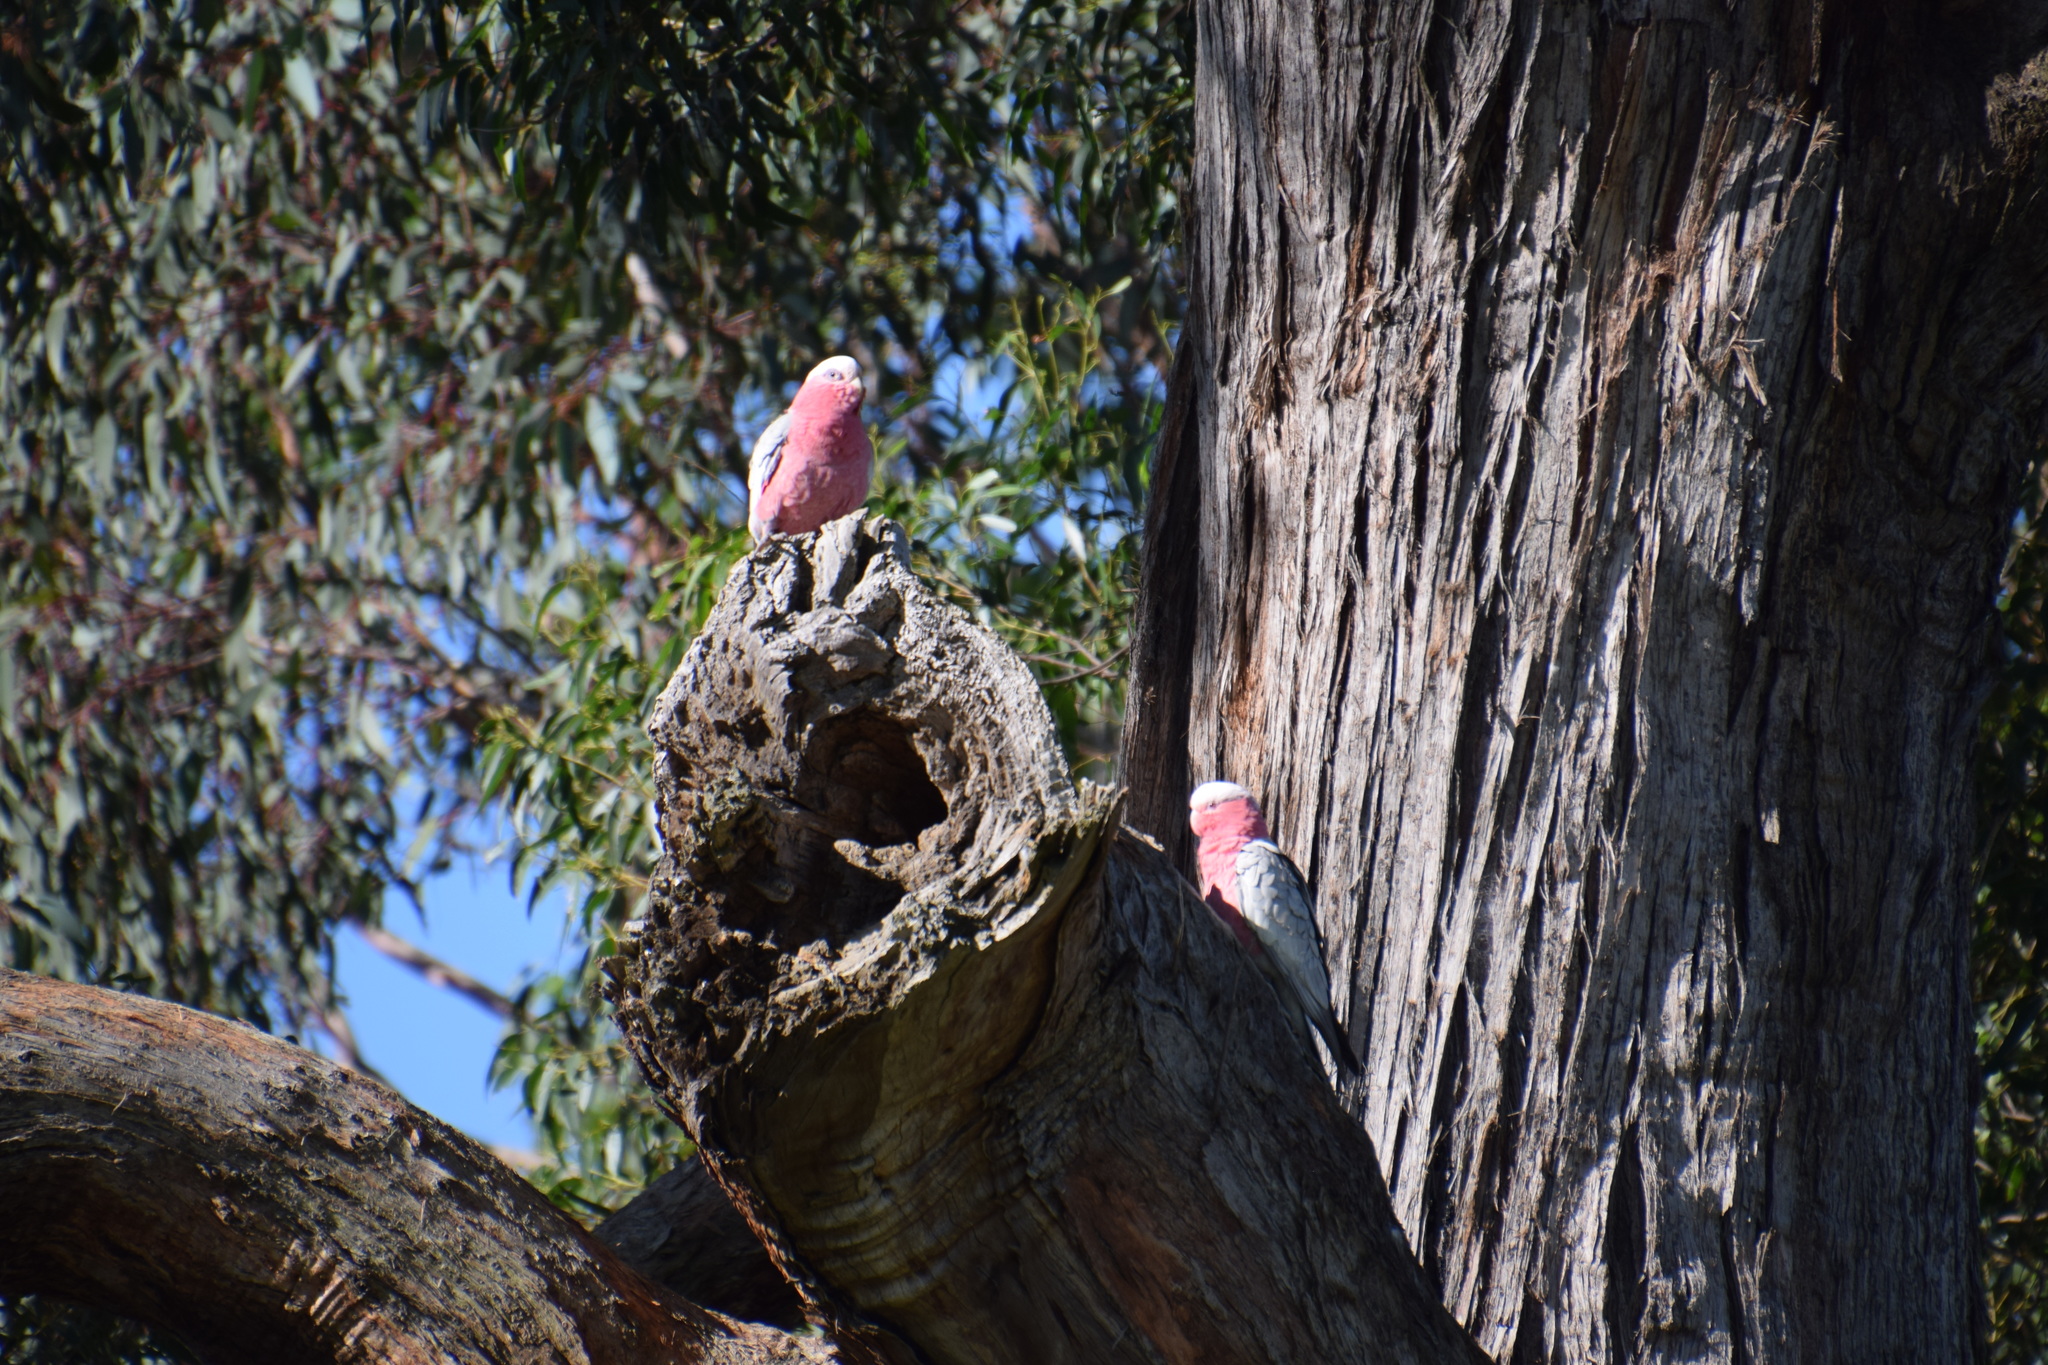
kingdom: Animalia
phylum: Chordata
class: Aves
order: Psittaciformes
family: Psittacidae
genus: Eolophus
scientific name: Eolophus roseicapilla
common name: Galah
